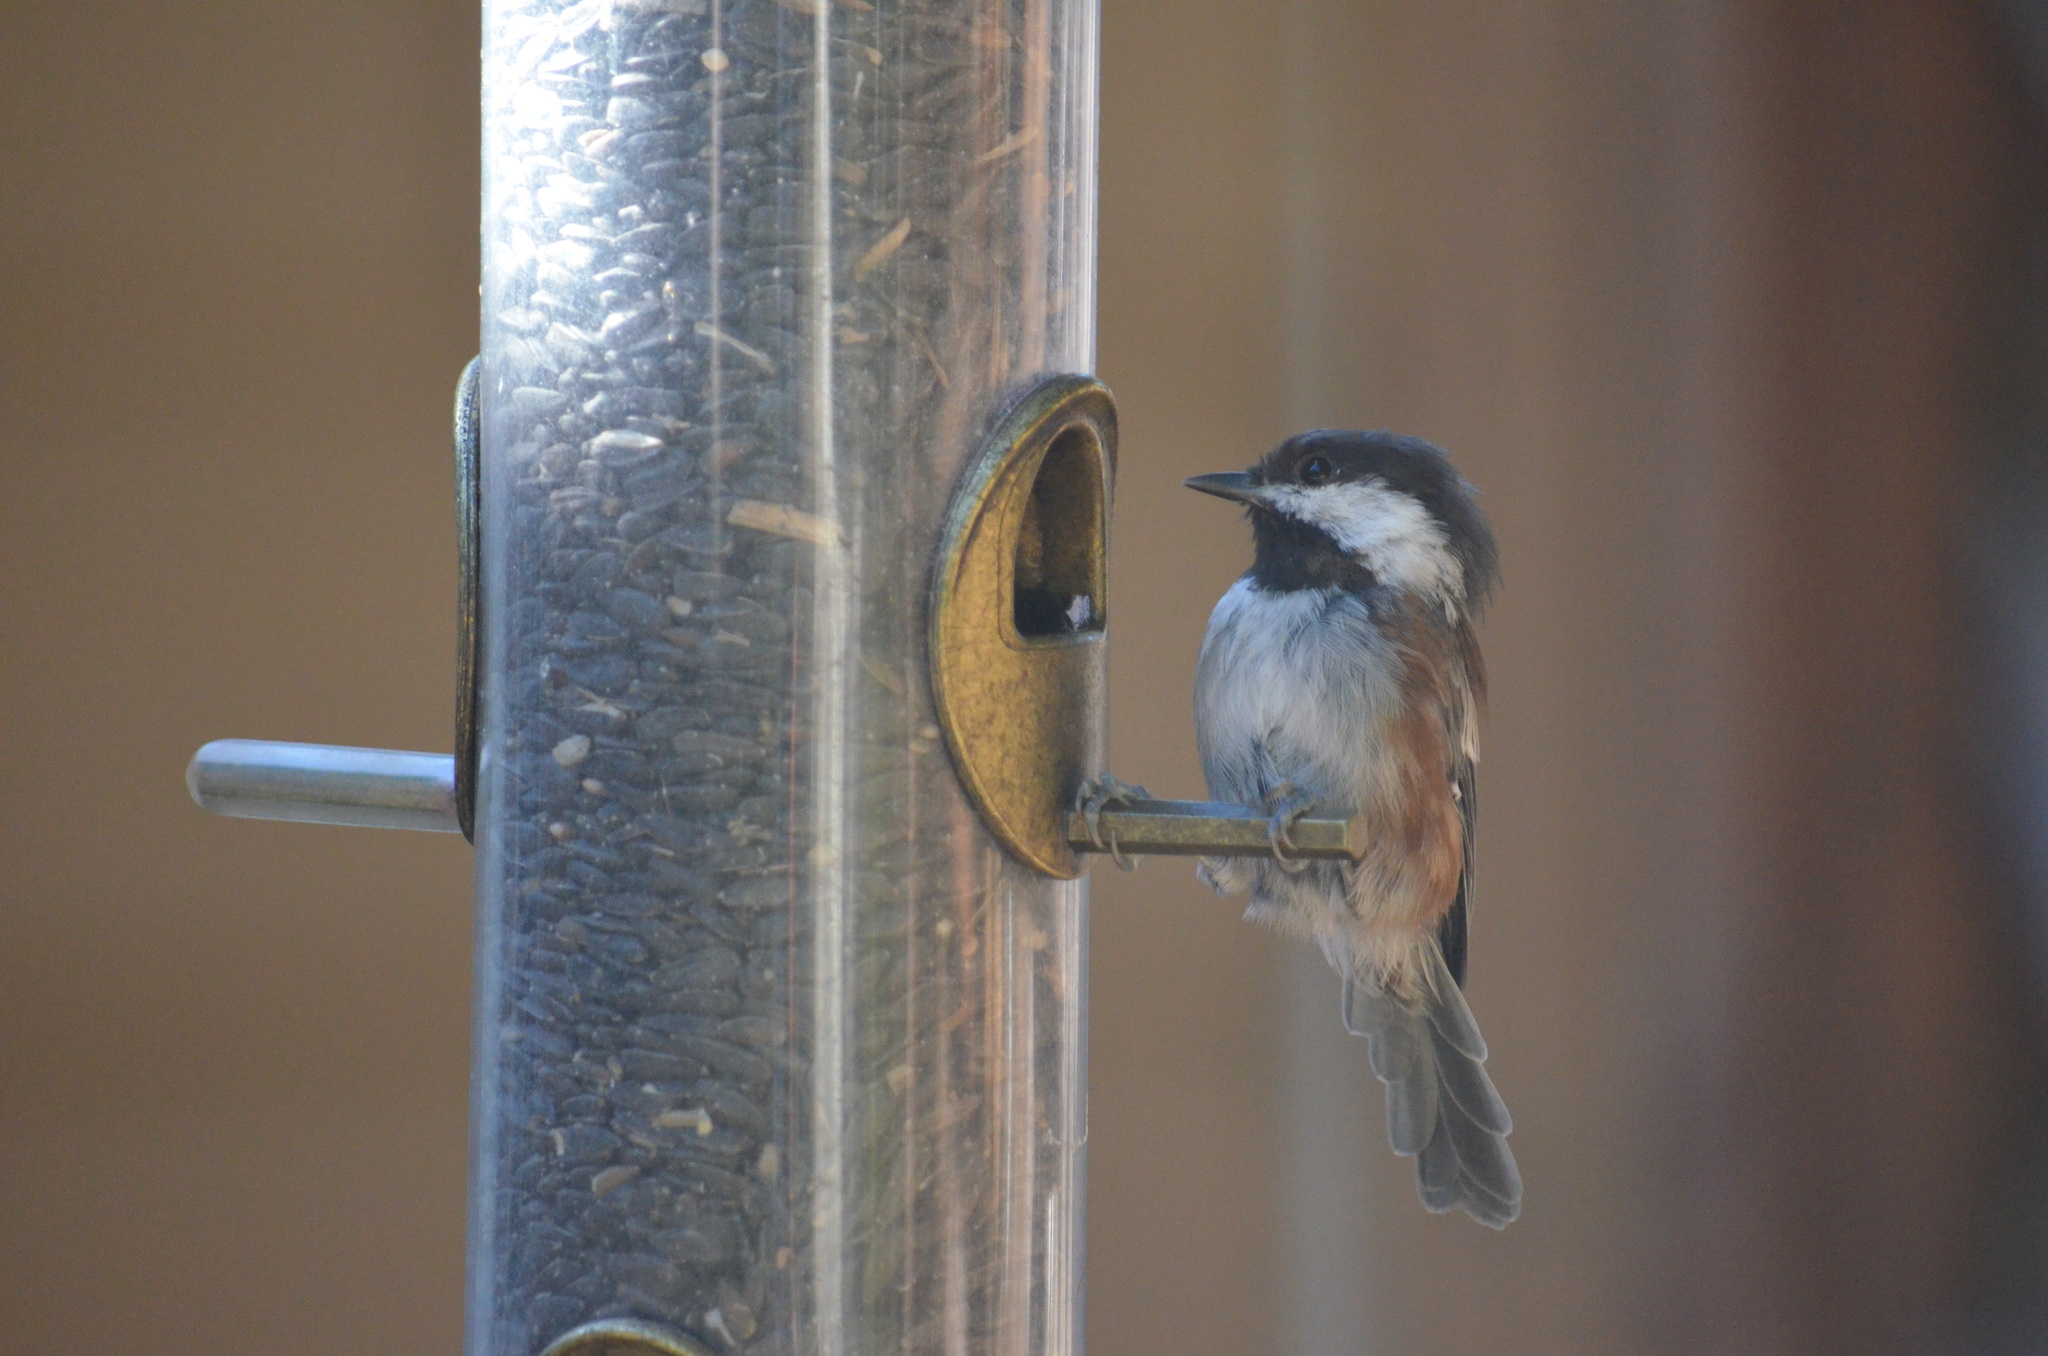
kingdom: Animalia
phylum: Chordata
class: Aves
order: Passeriformes
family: Paridae
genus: Poecile
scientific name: Poecile rufescens
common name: Chestnut-backed chickadee
